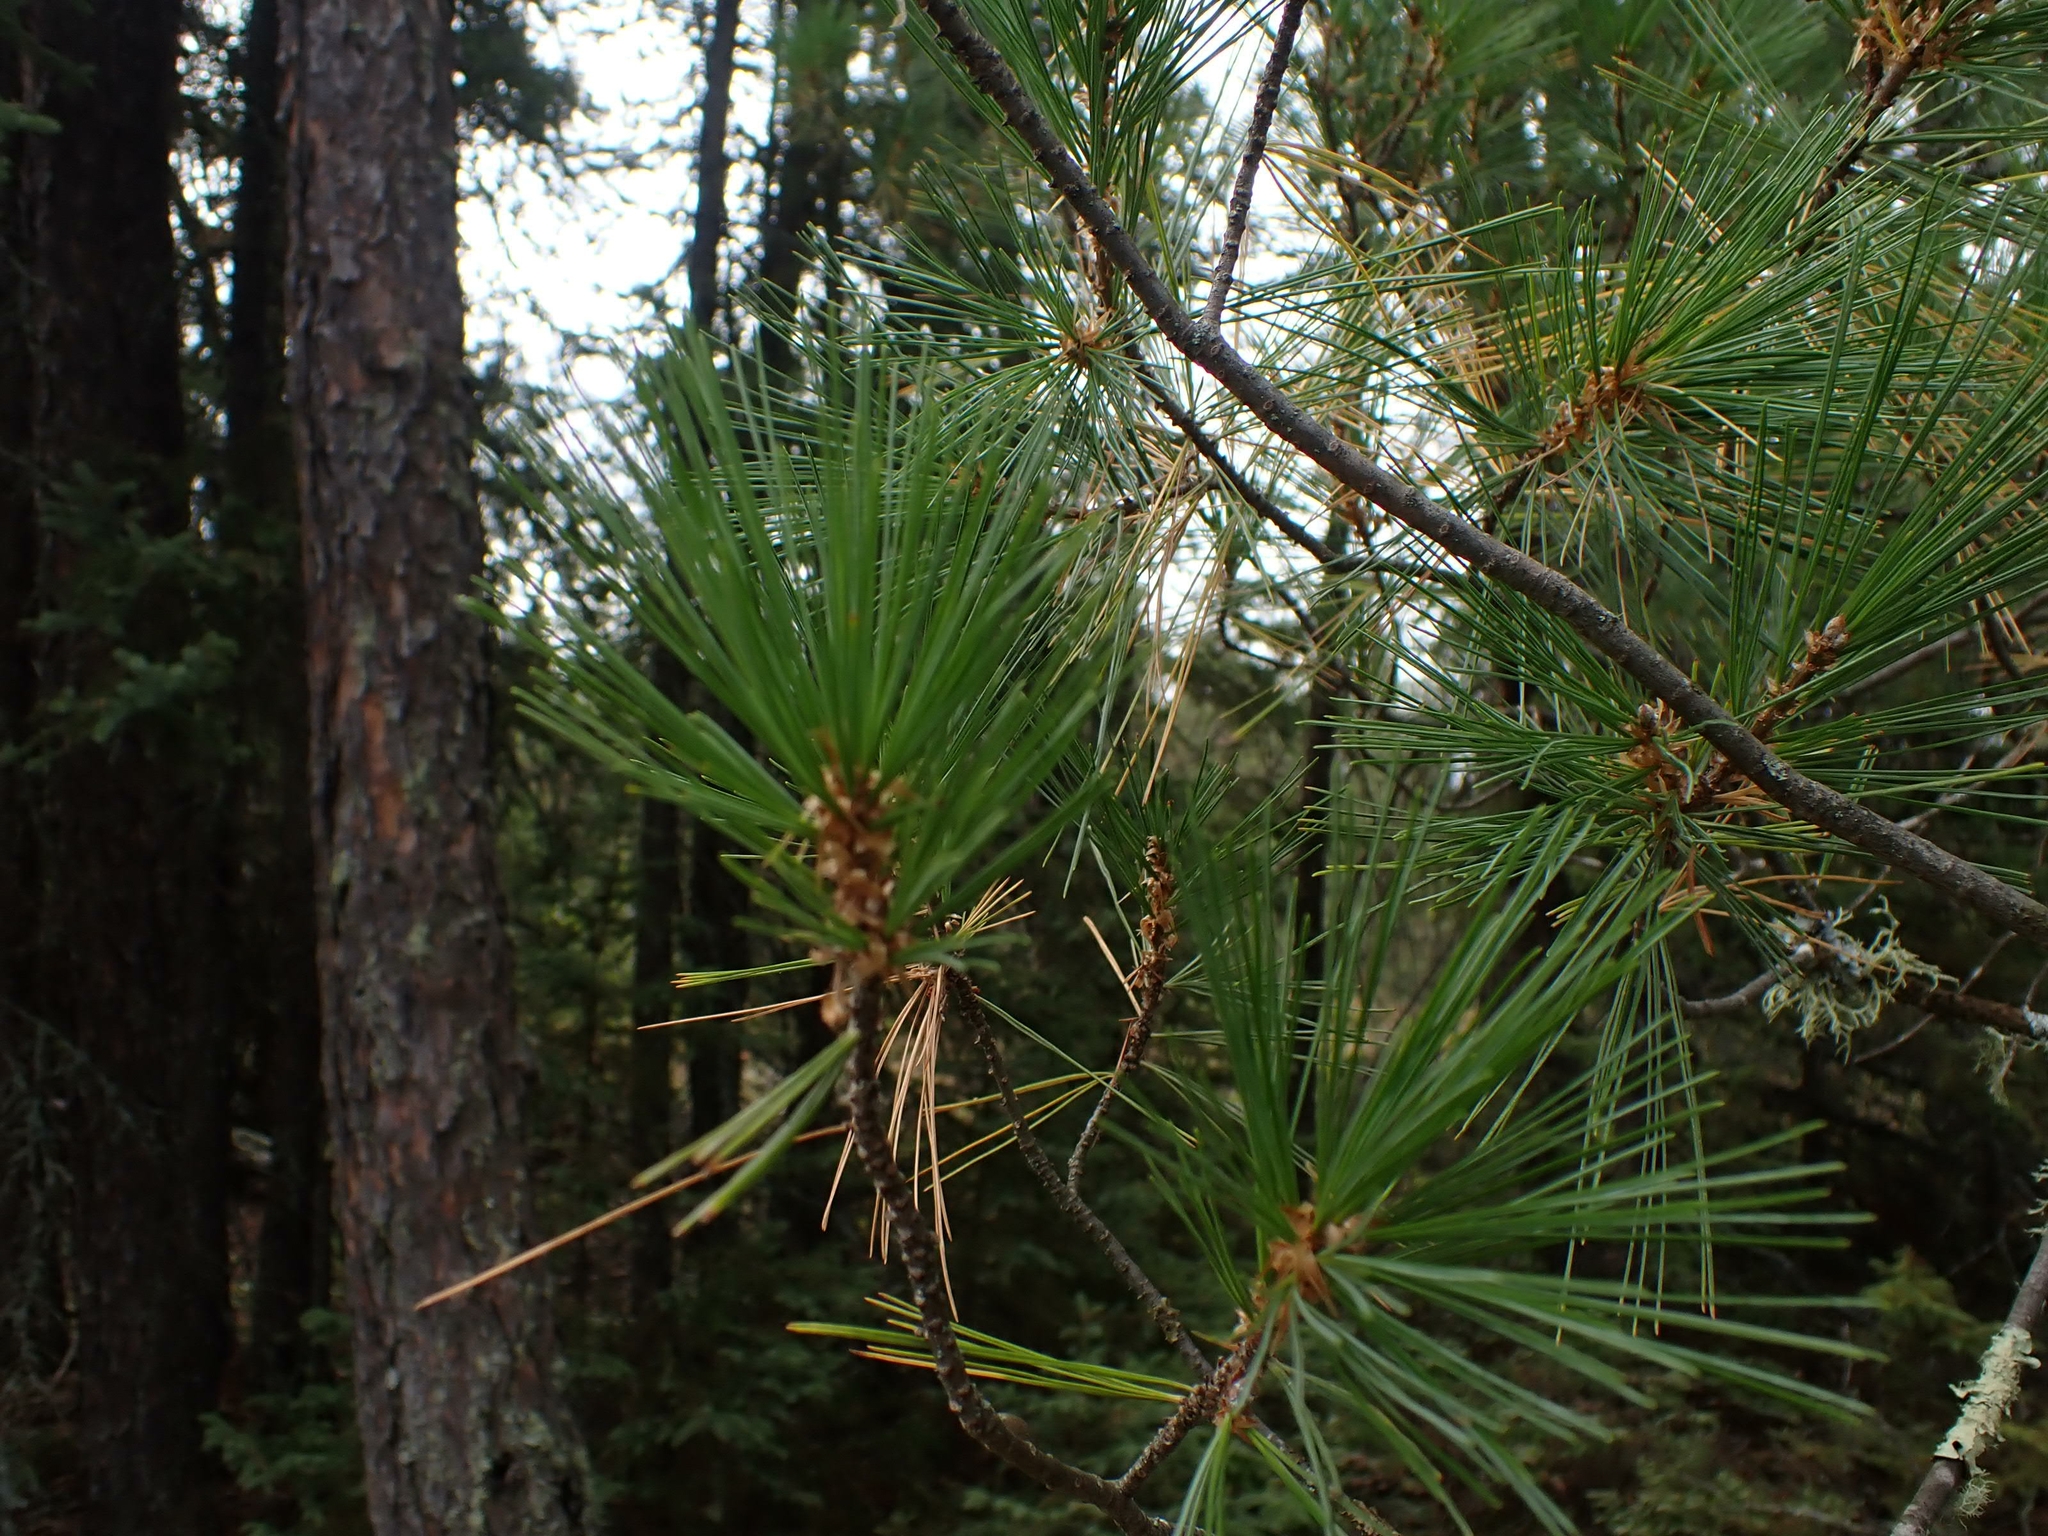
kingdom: Plantae
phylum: Tracheophyta
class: Pinopsida
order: Pinales
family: Pinaceae
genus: Pinus
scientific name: Pinus strobus
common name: Weymouth pine
